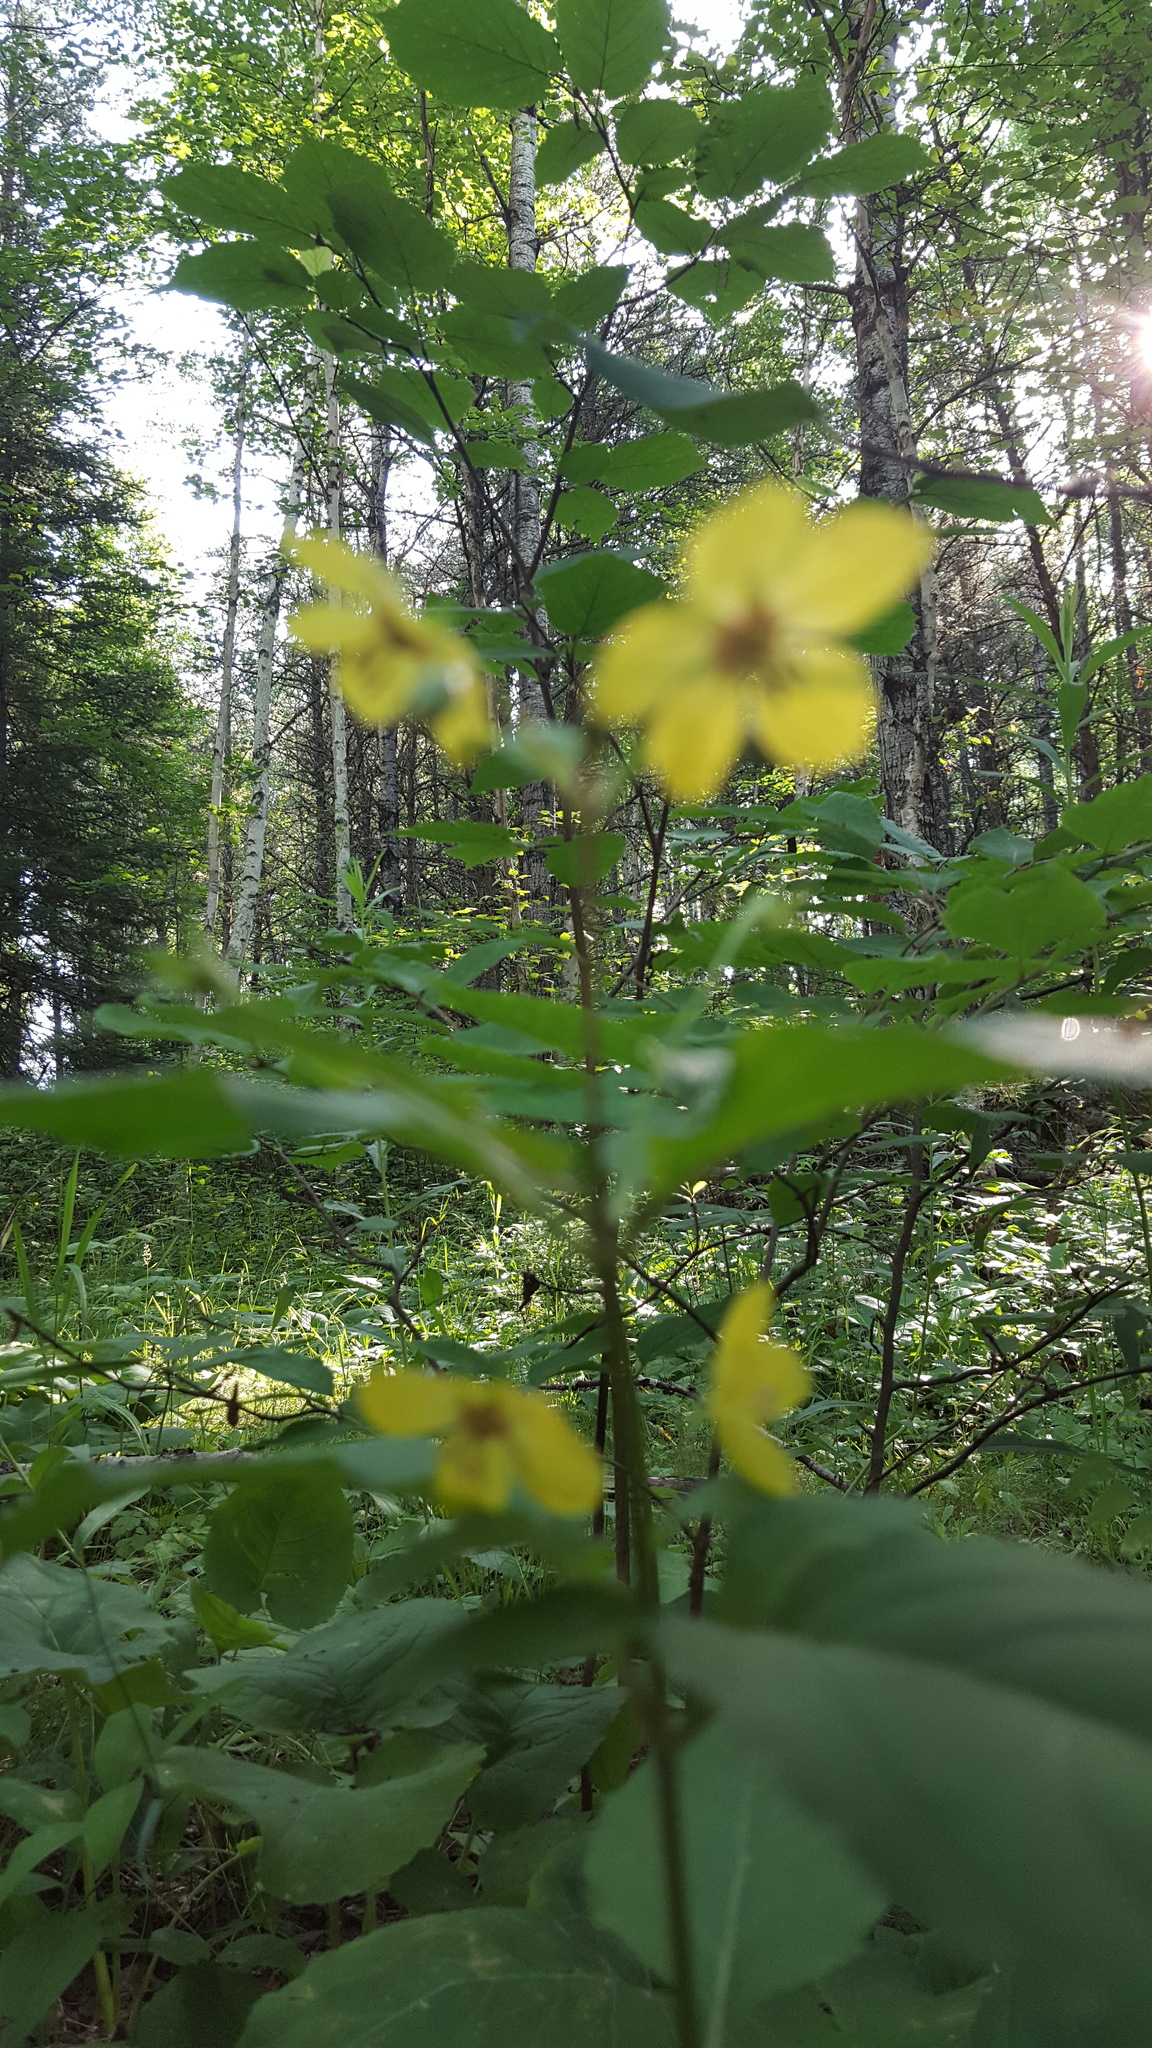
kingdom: Plantae
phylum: Tracheophyta
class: Magnoliopsida
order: Ericales
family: Primulaceae
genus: Lysimachia
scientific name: Lysimachia ciliata
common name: Fringed loosestrife
